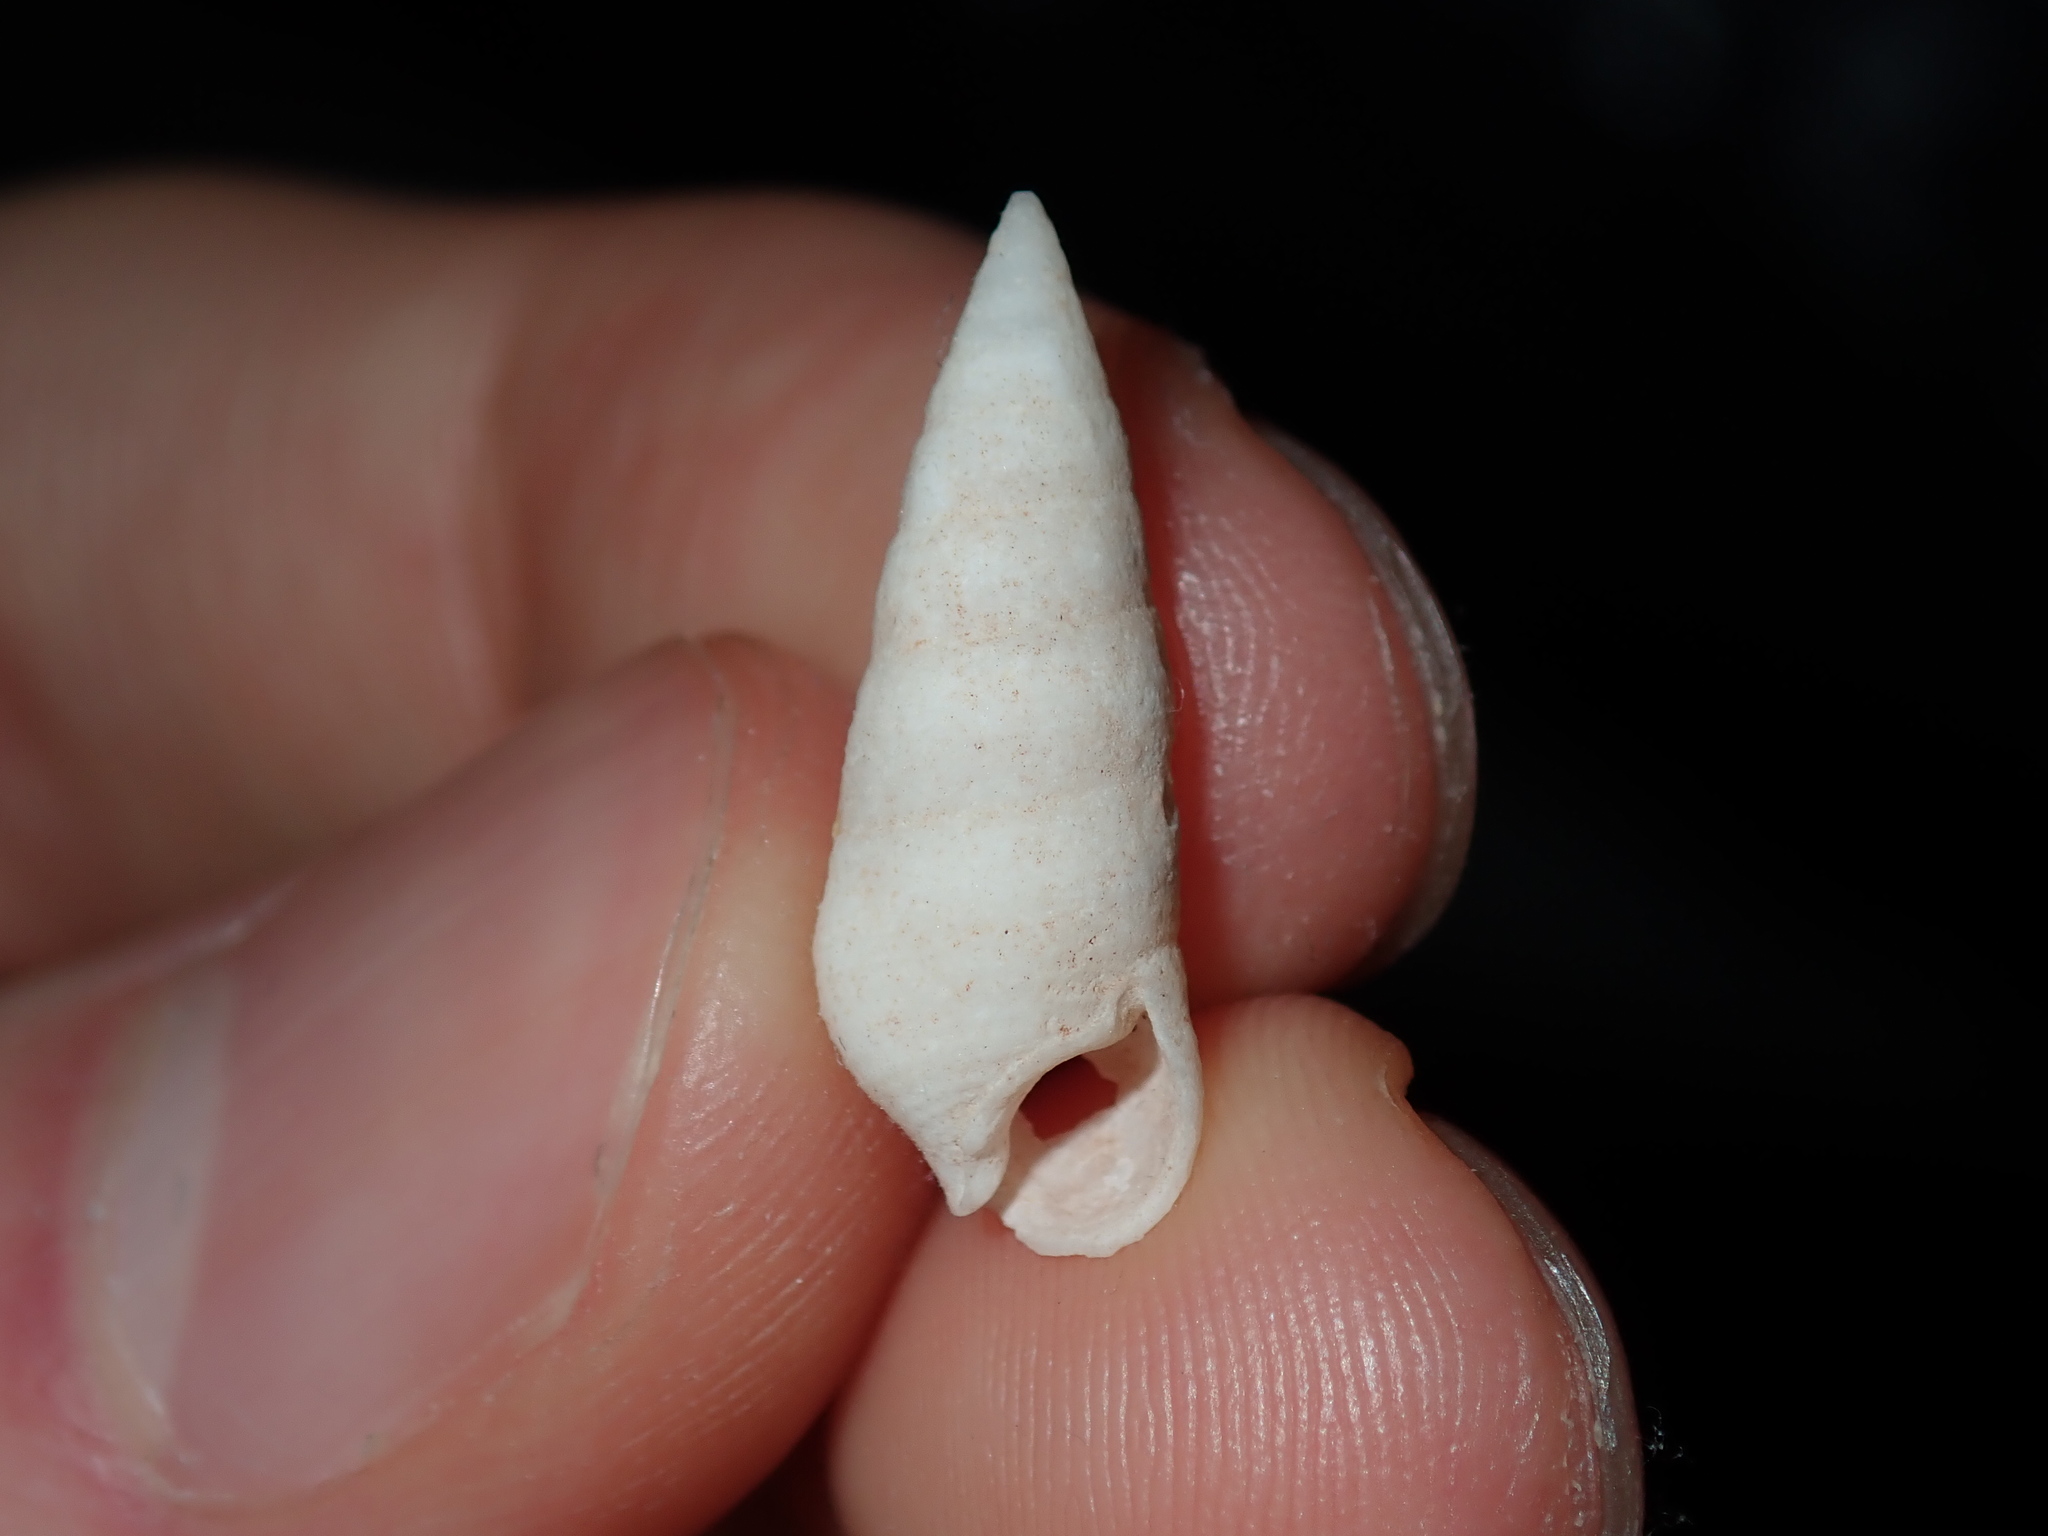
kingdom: Animalia
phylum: Mollusca
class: Gastropoda
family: Cerithiidae
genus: Cerithium
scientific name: Cerithium nesioticum
